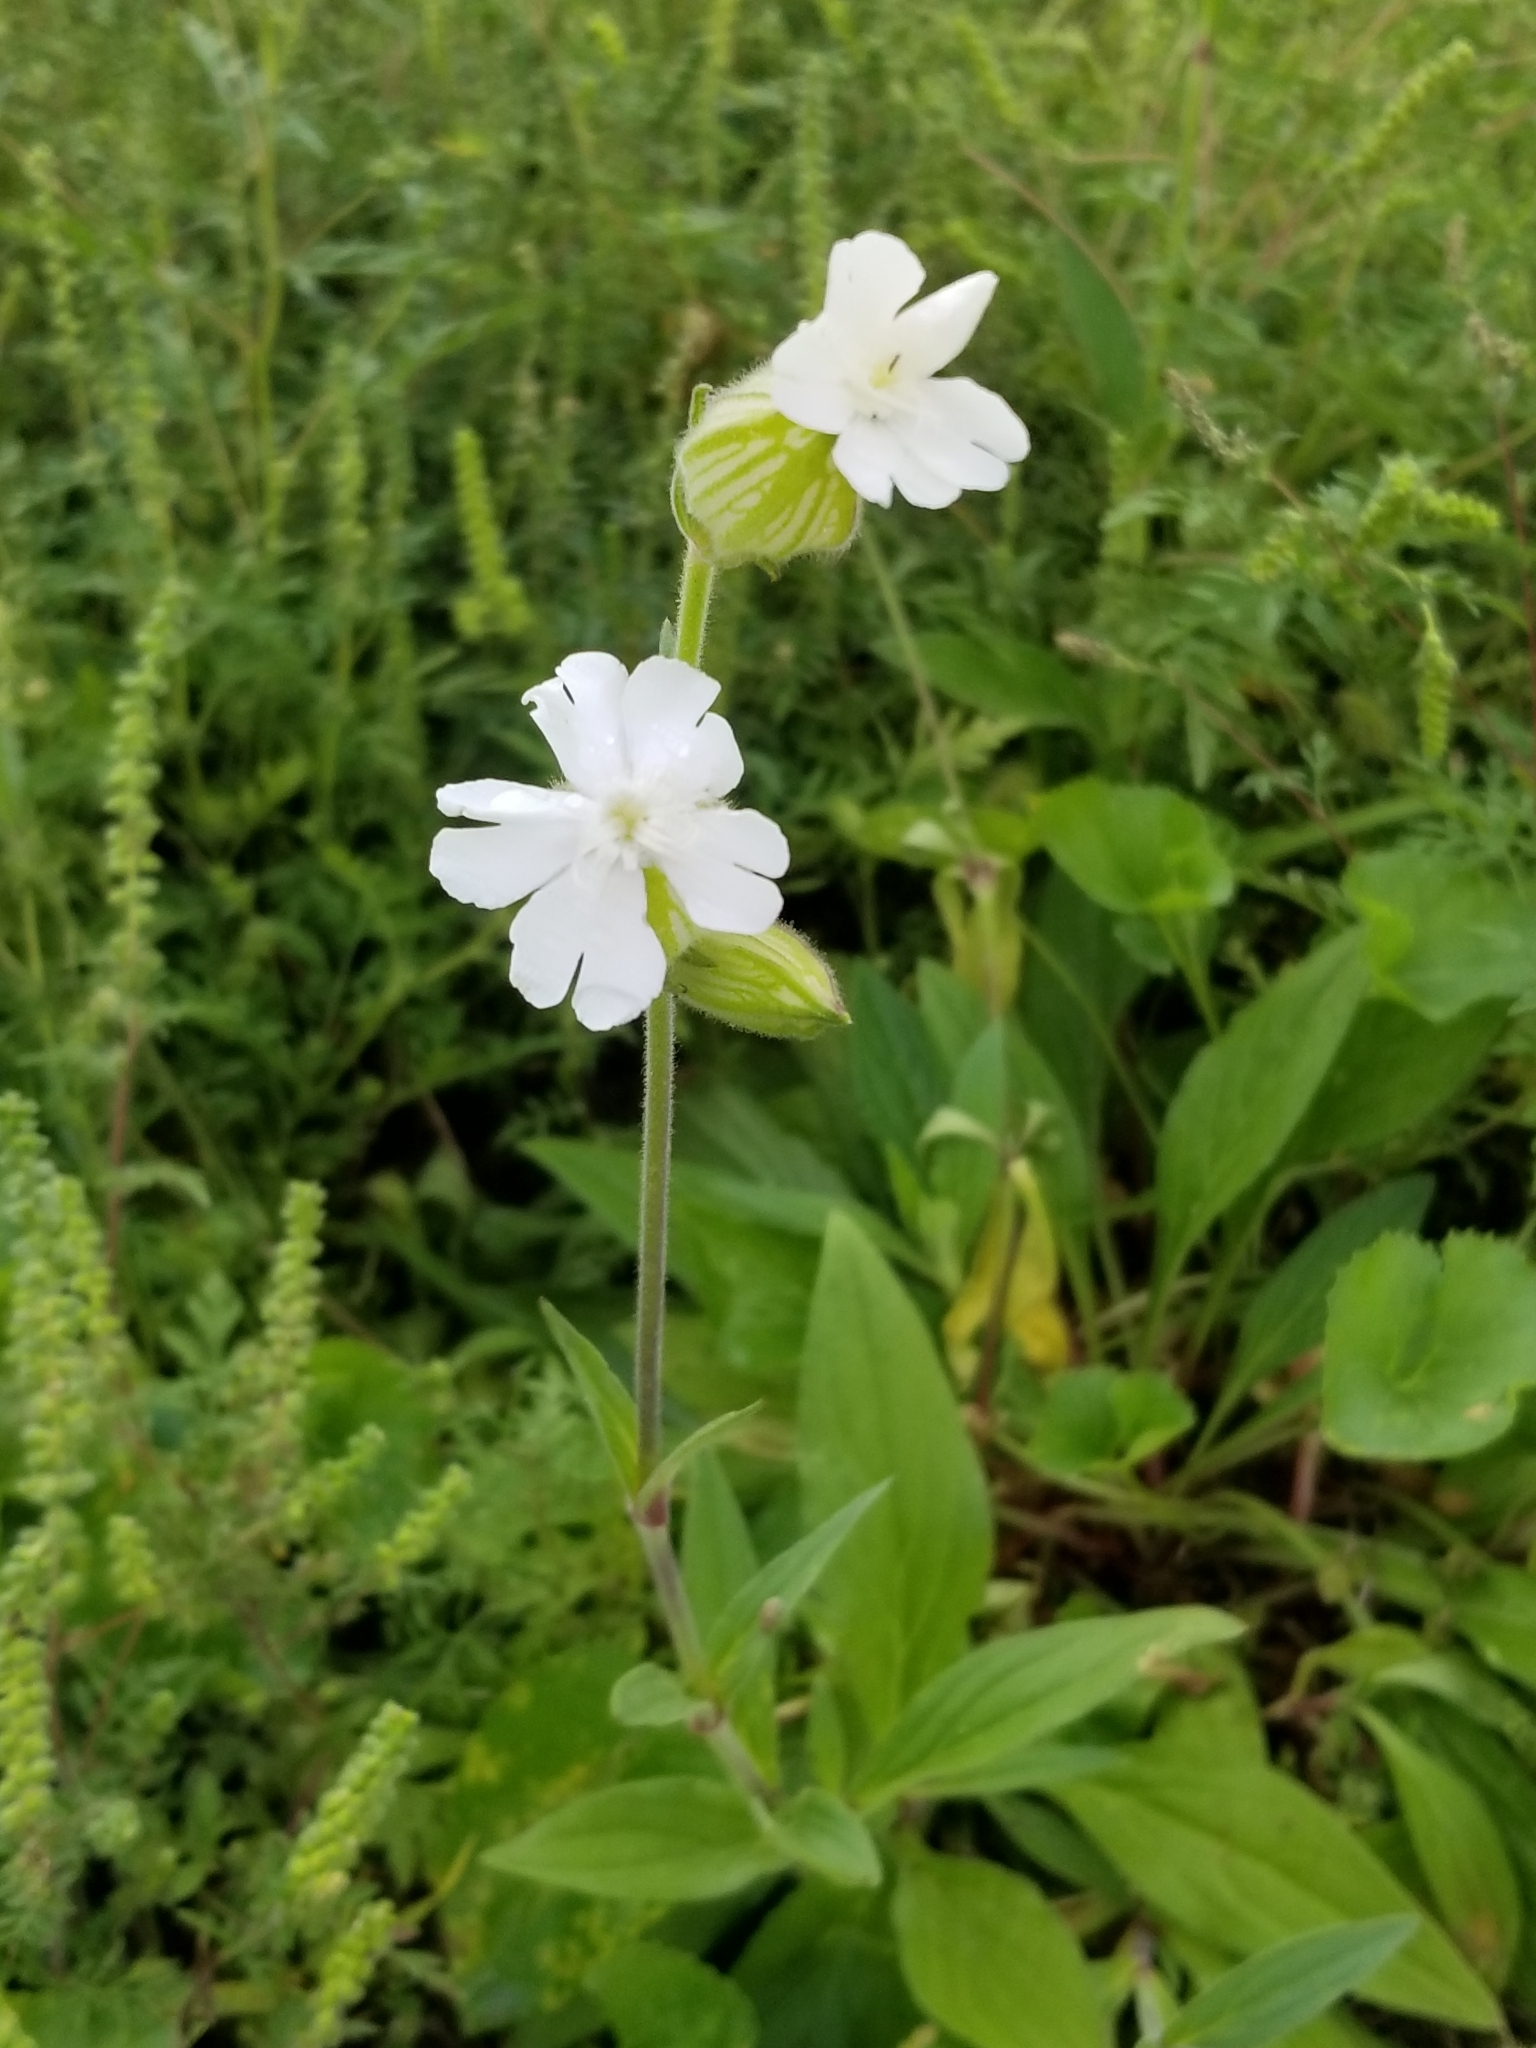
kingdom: Plantae
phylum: Tracheophyta
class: Magnoliopsida
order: Caryophyllales
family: Caryophyllaceae
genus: Silene
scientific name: Silene latifolia
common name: White campion
